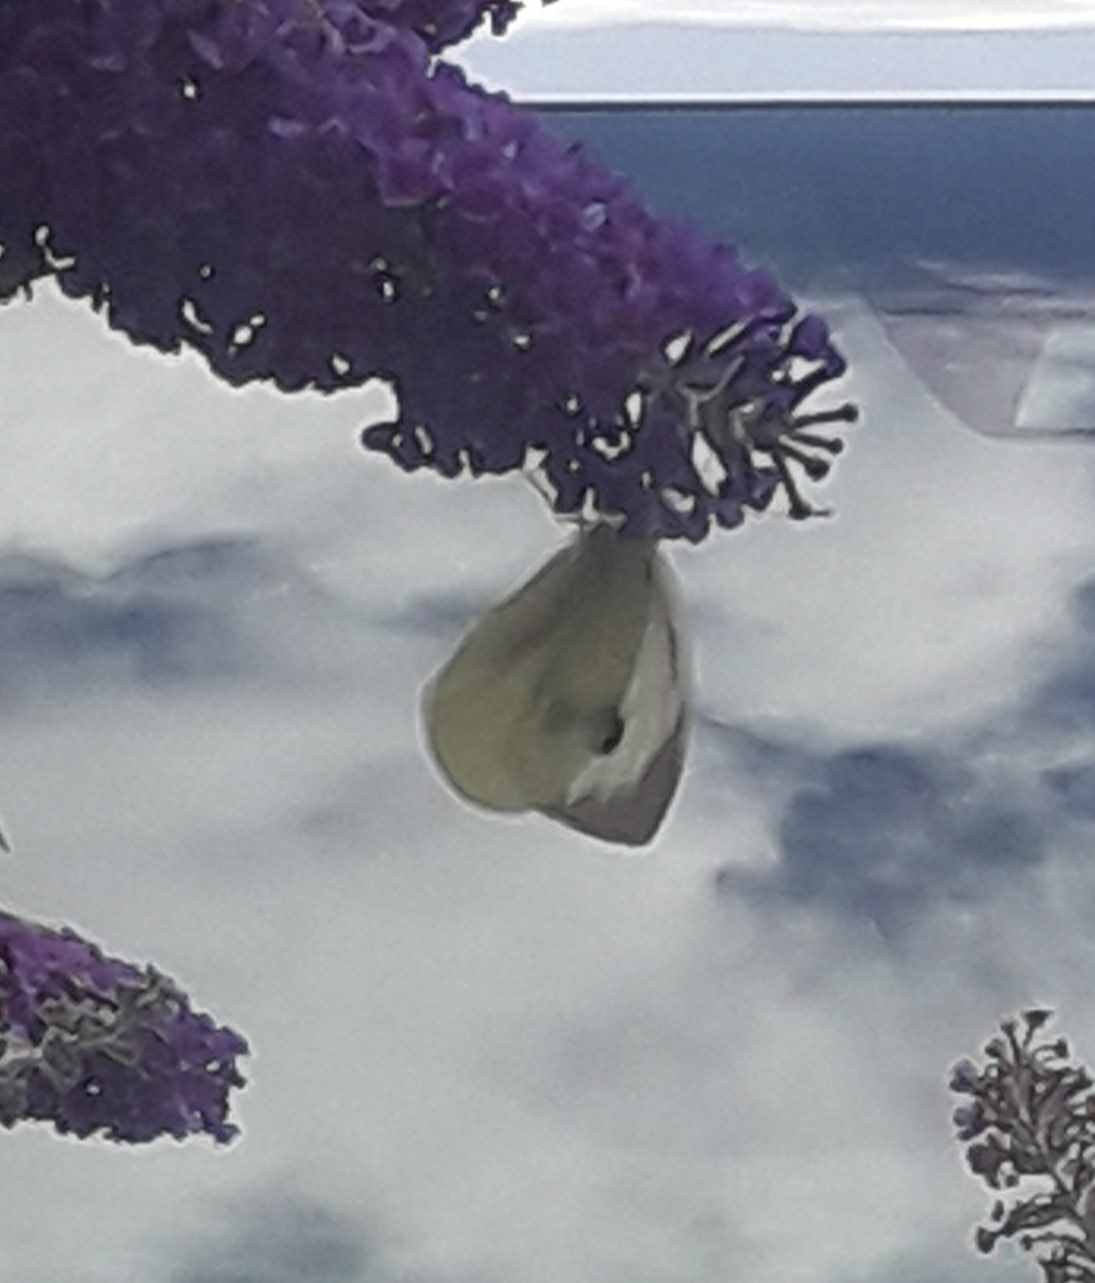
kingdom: Animalia
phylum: Arthropoda
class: Insecta
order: Lepidoptera
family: Pieridae
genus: Pieris
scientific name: Pieris brassicae
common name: Large white
